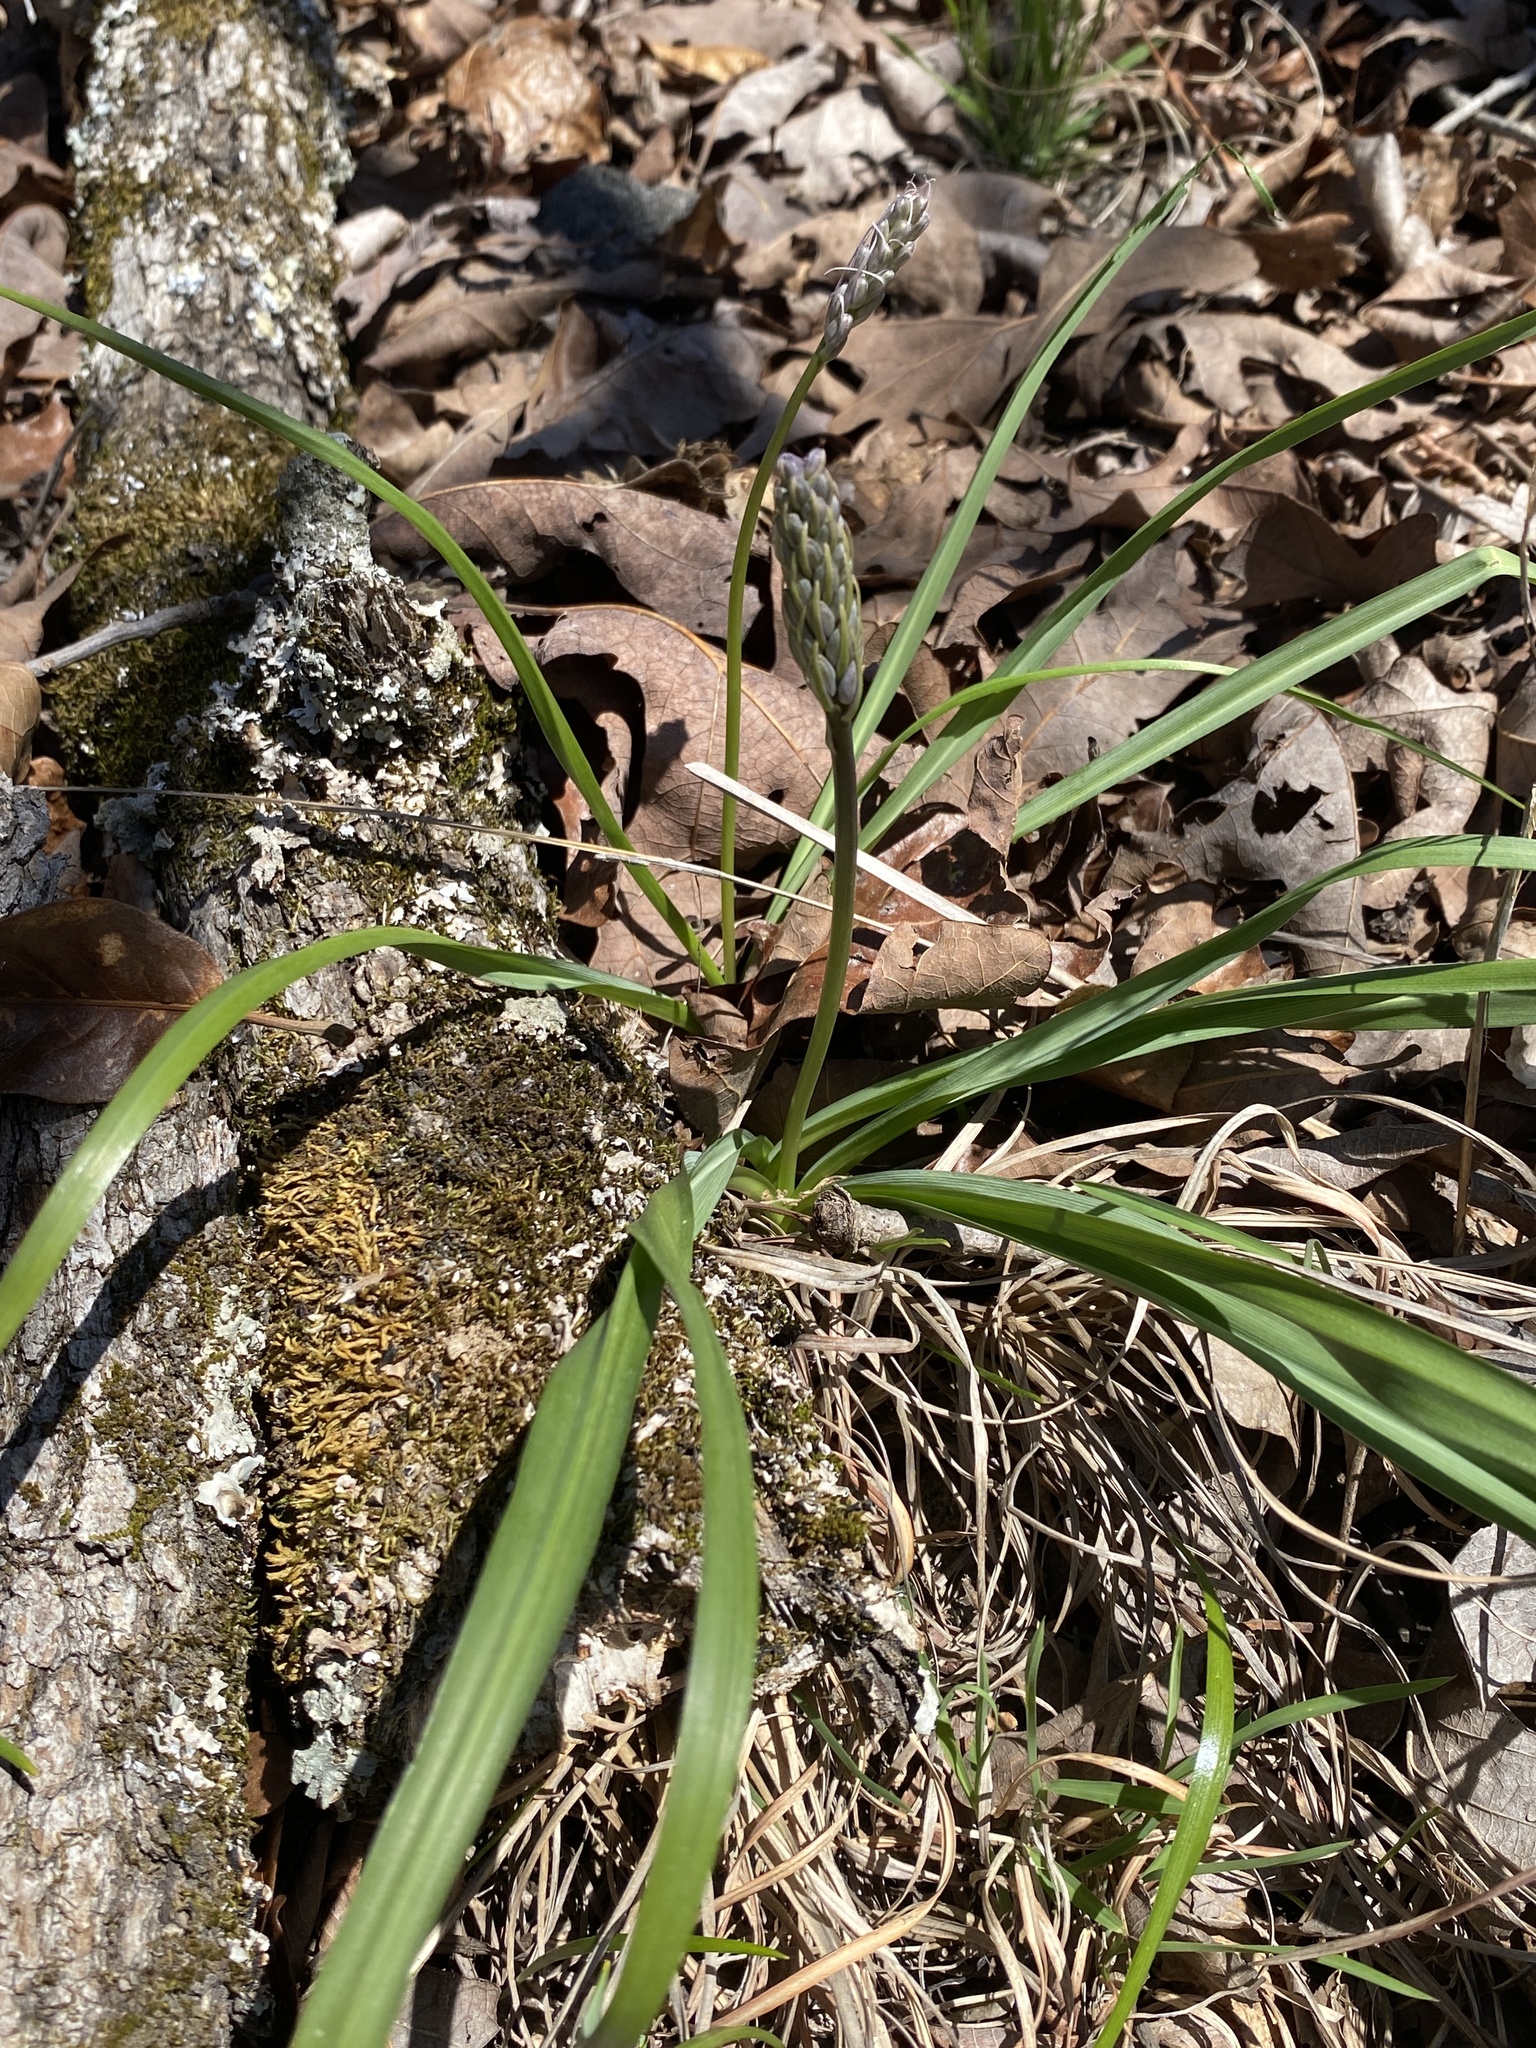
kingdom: Plantae
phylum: Tracheophyta
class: Liliopsida
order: Asparagales
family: Asparagaceae
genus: Camassia
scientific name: Camassia scilloides
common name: Wild hyacinth
